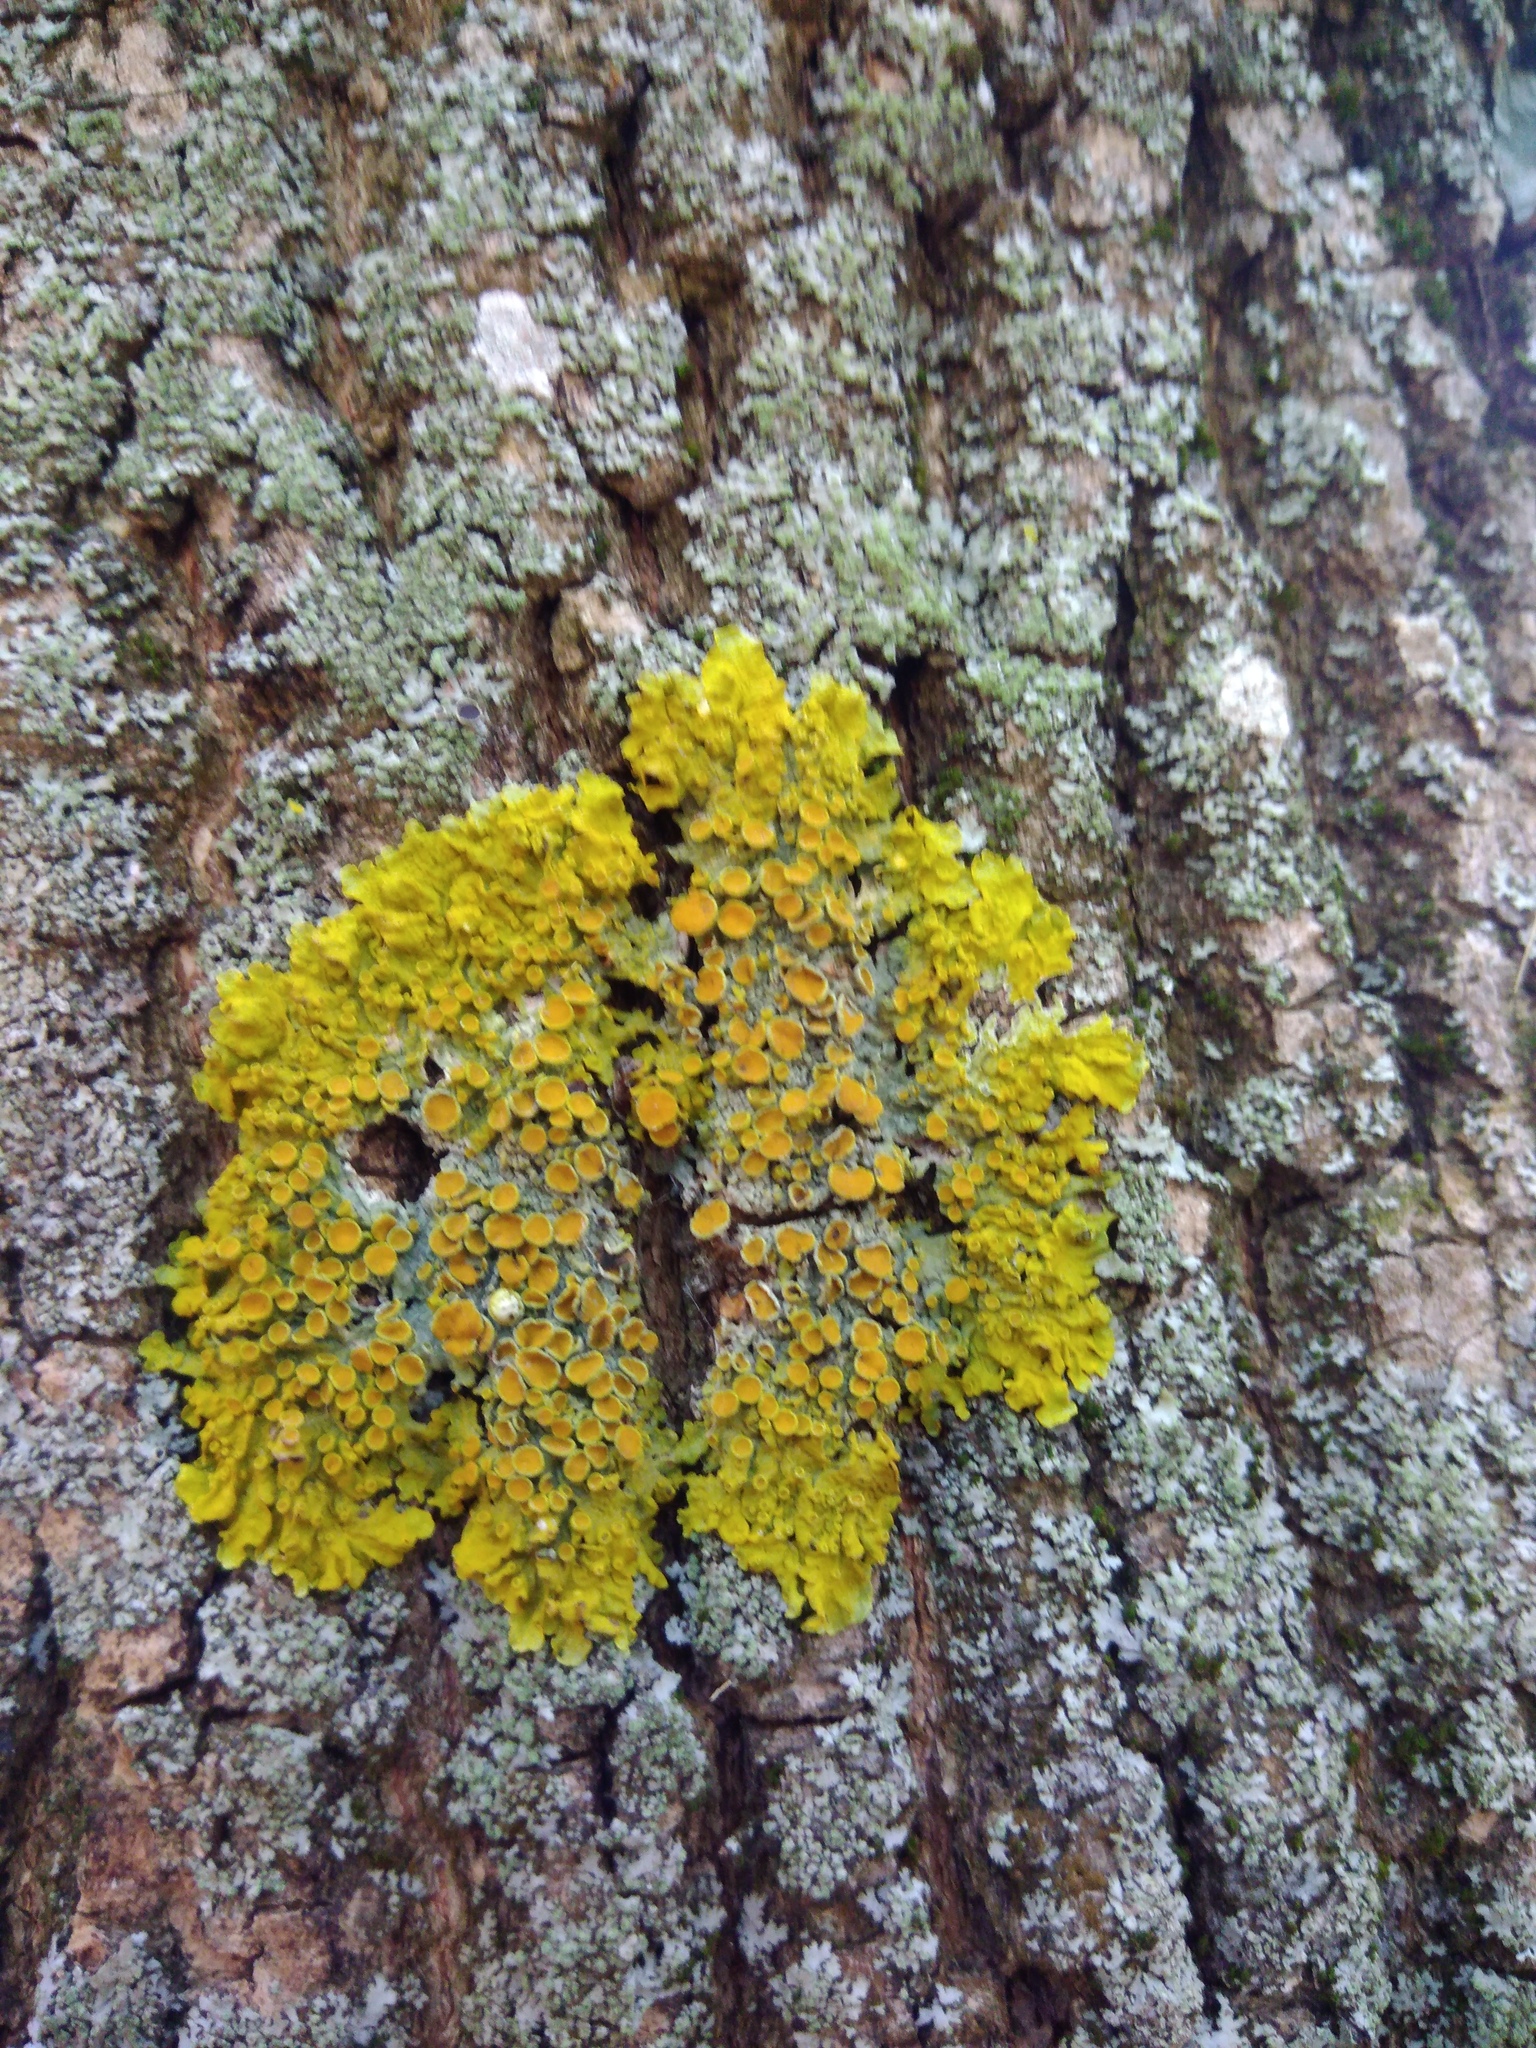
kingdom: Fungi
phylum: Ascomycota
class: Lecanoromycetes
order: Teloschistales
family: Teloschistaceae
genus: Xanthoria
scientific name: Xanthoria parietina
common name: Common orange lichen
